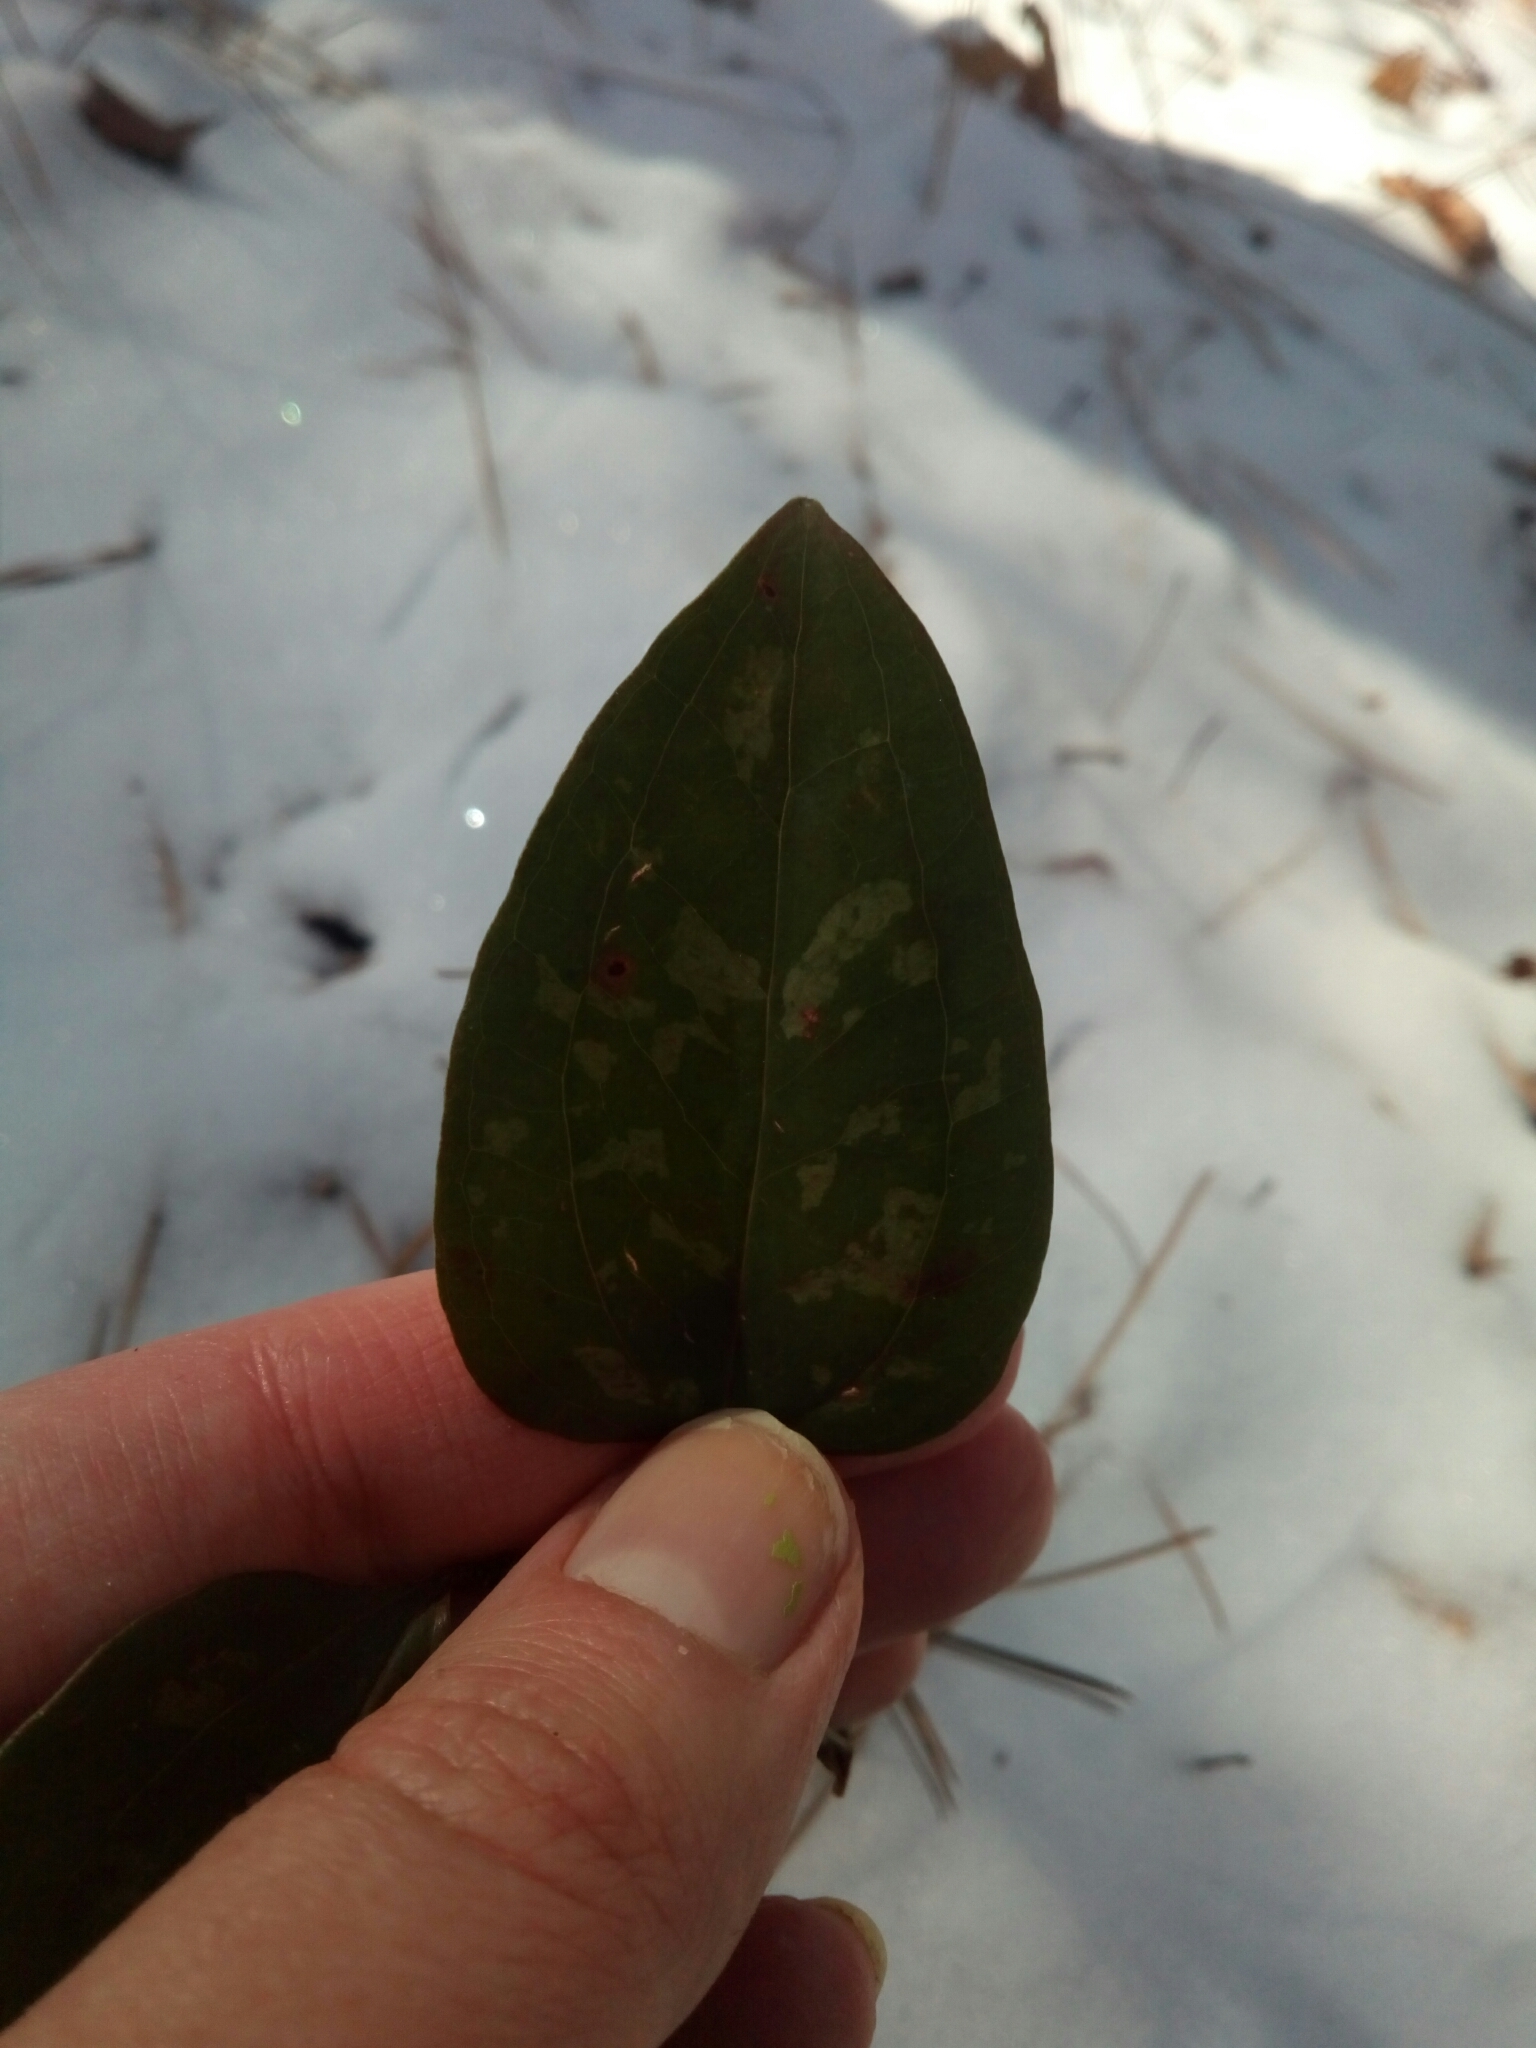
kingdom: Plantae
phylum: Tracheophyta
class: Liliopsida
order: Liliales
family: Smilacaceae
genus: Smilax
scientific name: Smilax glauca
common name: Cat greenbrier
